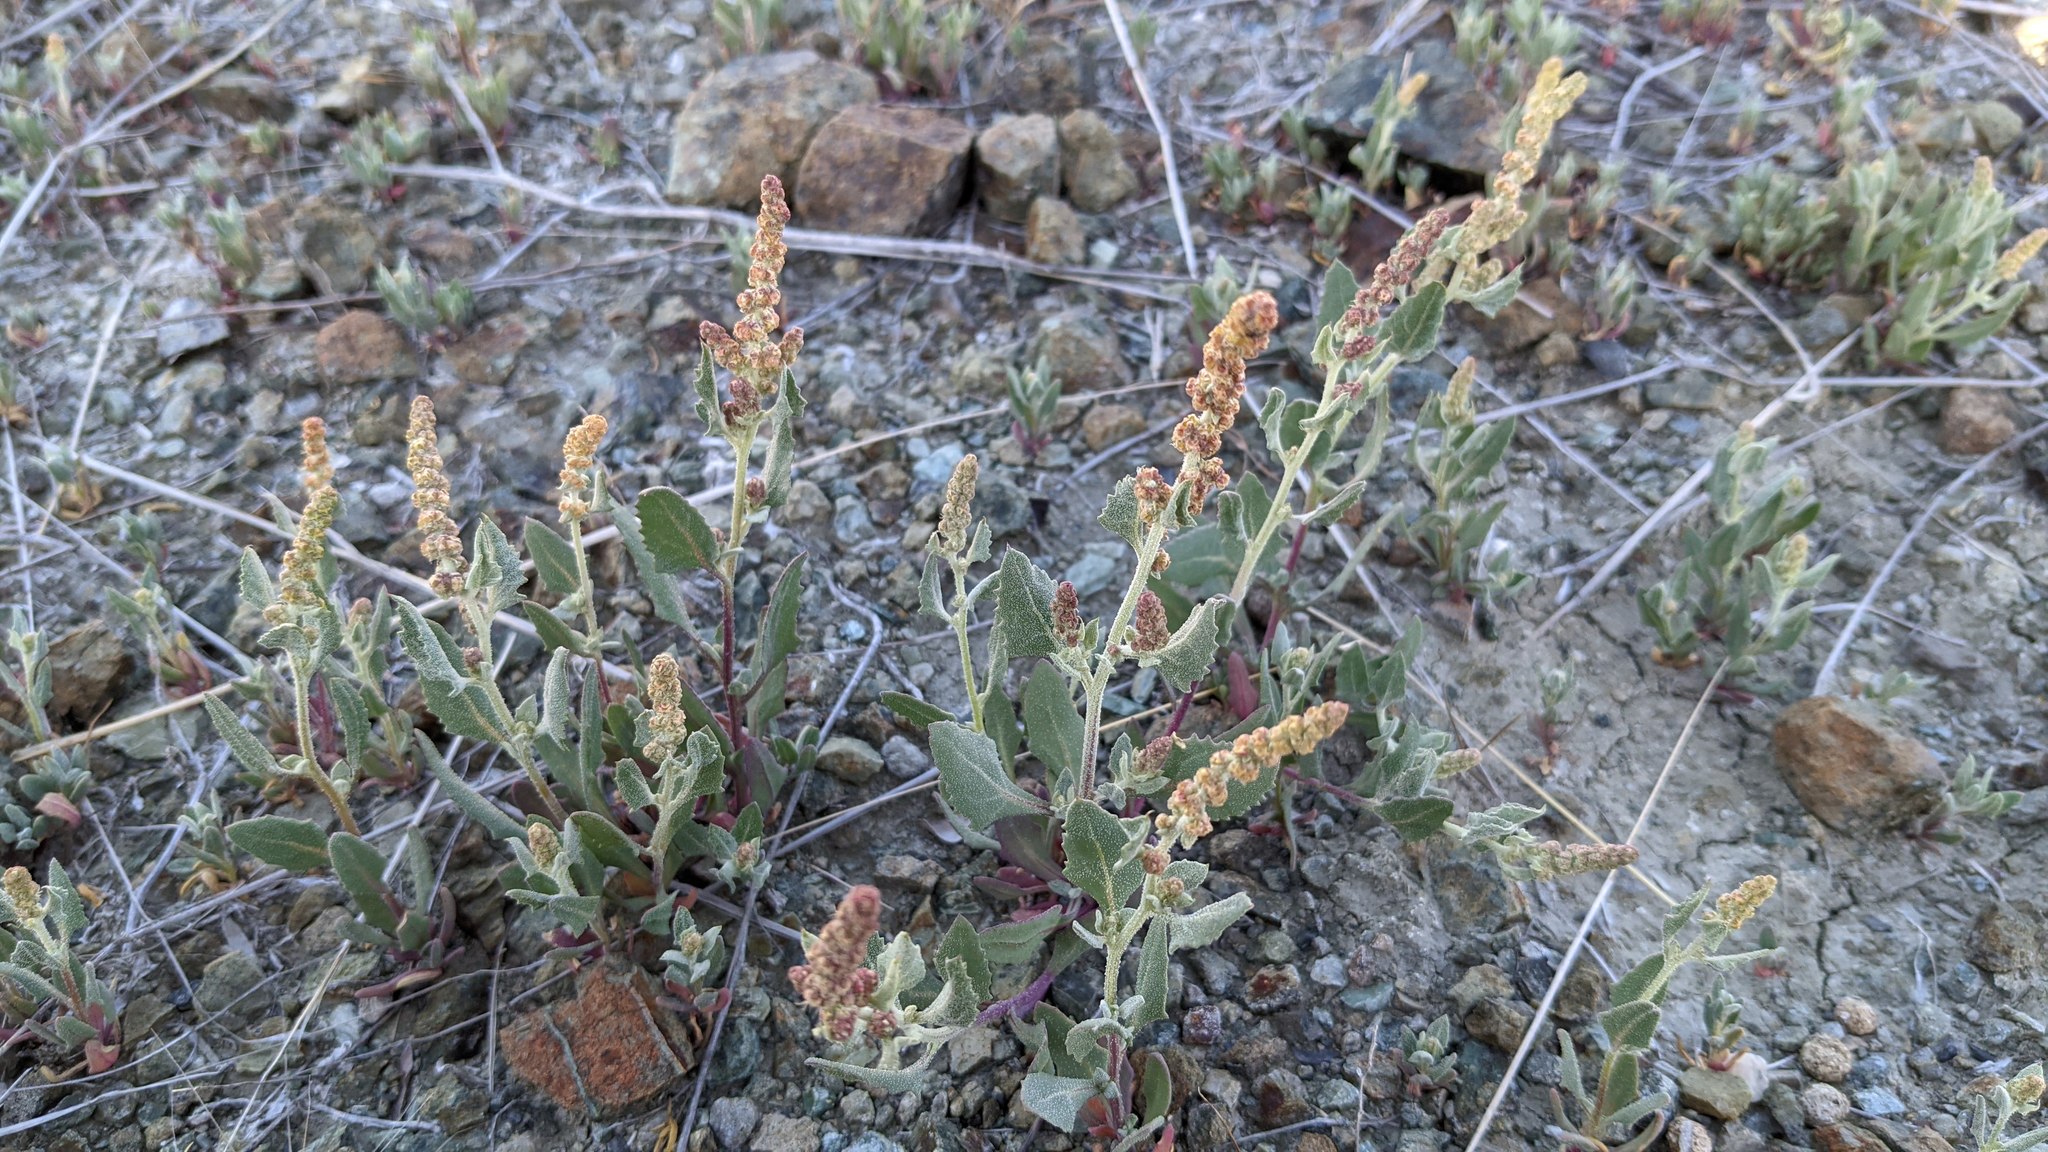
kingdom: Plantae
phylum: Tracheophyta
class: Magnoliopsida
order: Caryophyllales
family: Amaranthaceae
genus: Extriplex
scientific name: Extriplex joaquinana
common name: San joaquin saltbush
